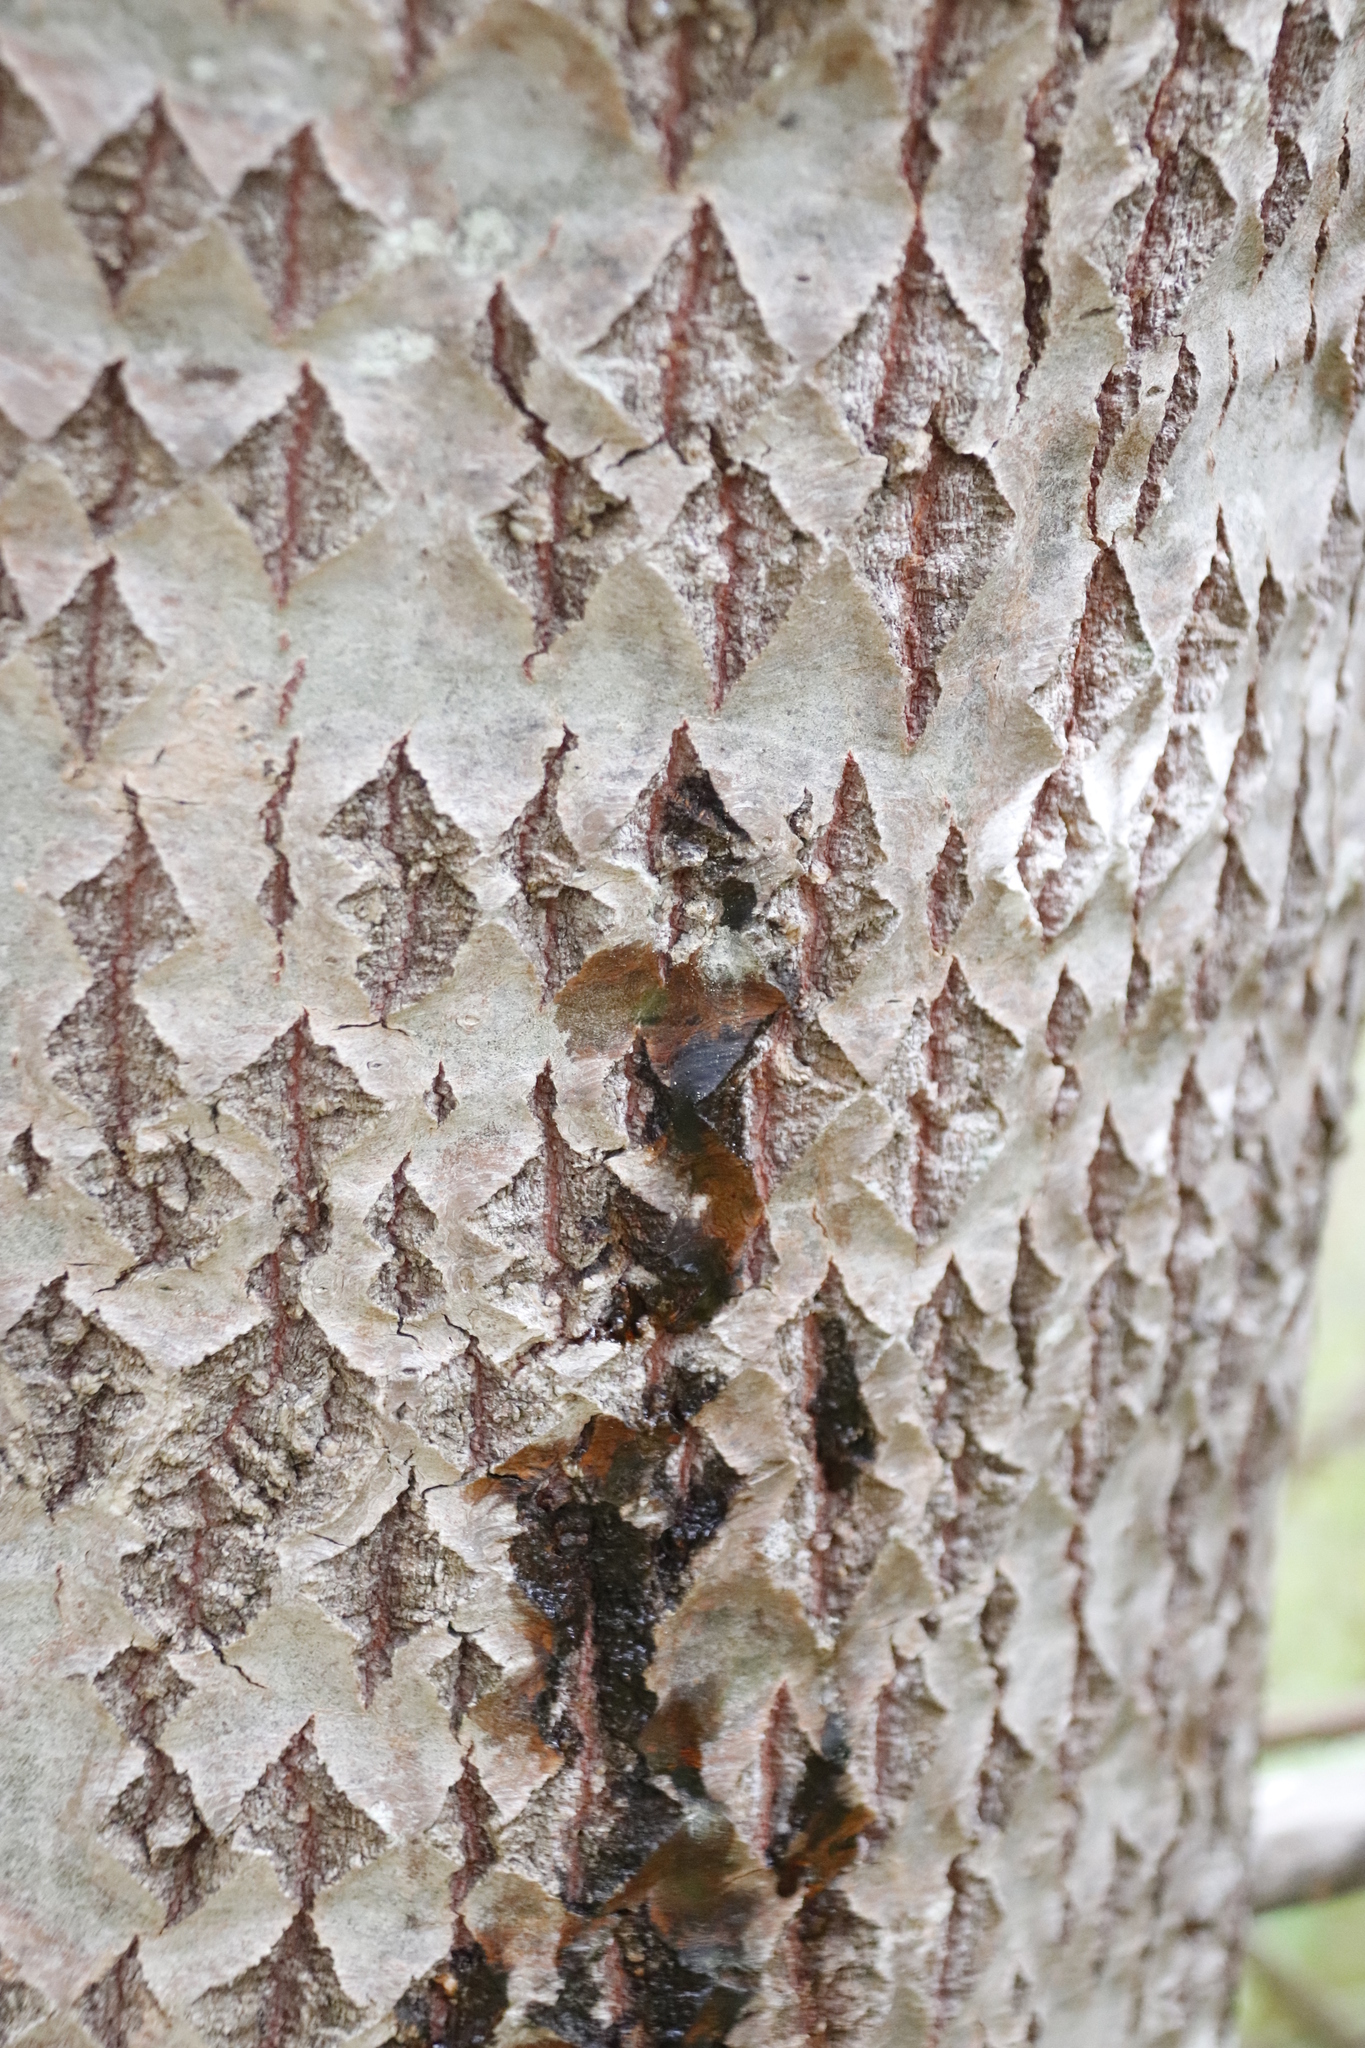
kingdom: Plantae
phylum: Tracheophyta
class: Magnoliopsida
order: Malpighiales
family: Salicaceae
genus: Populus
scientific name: Populus canescens
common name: Gray poplar
